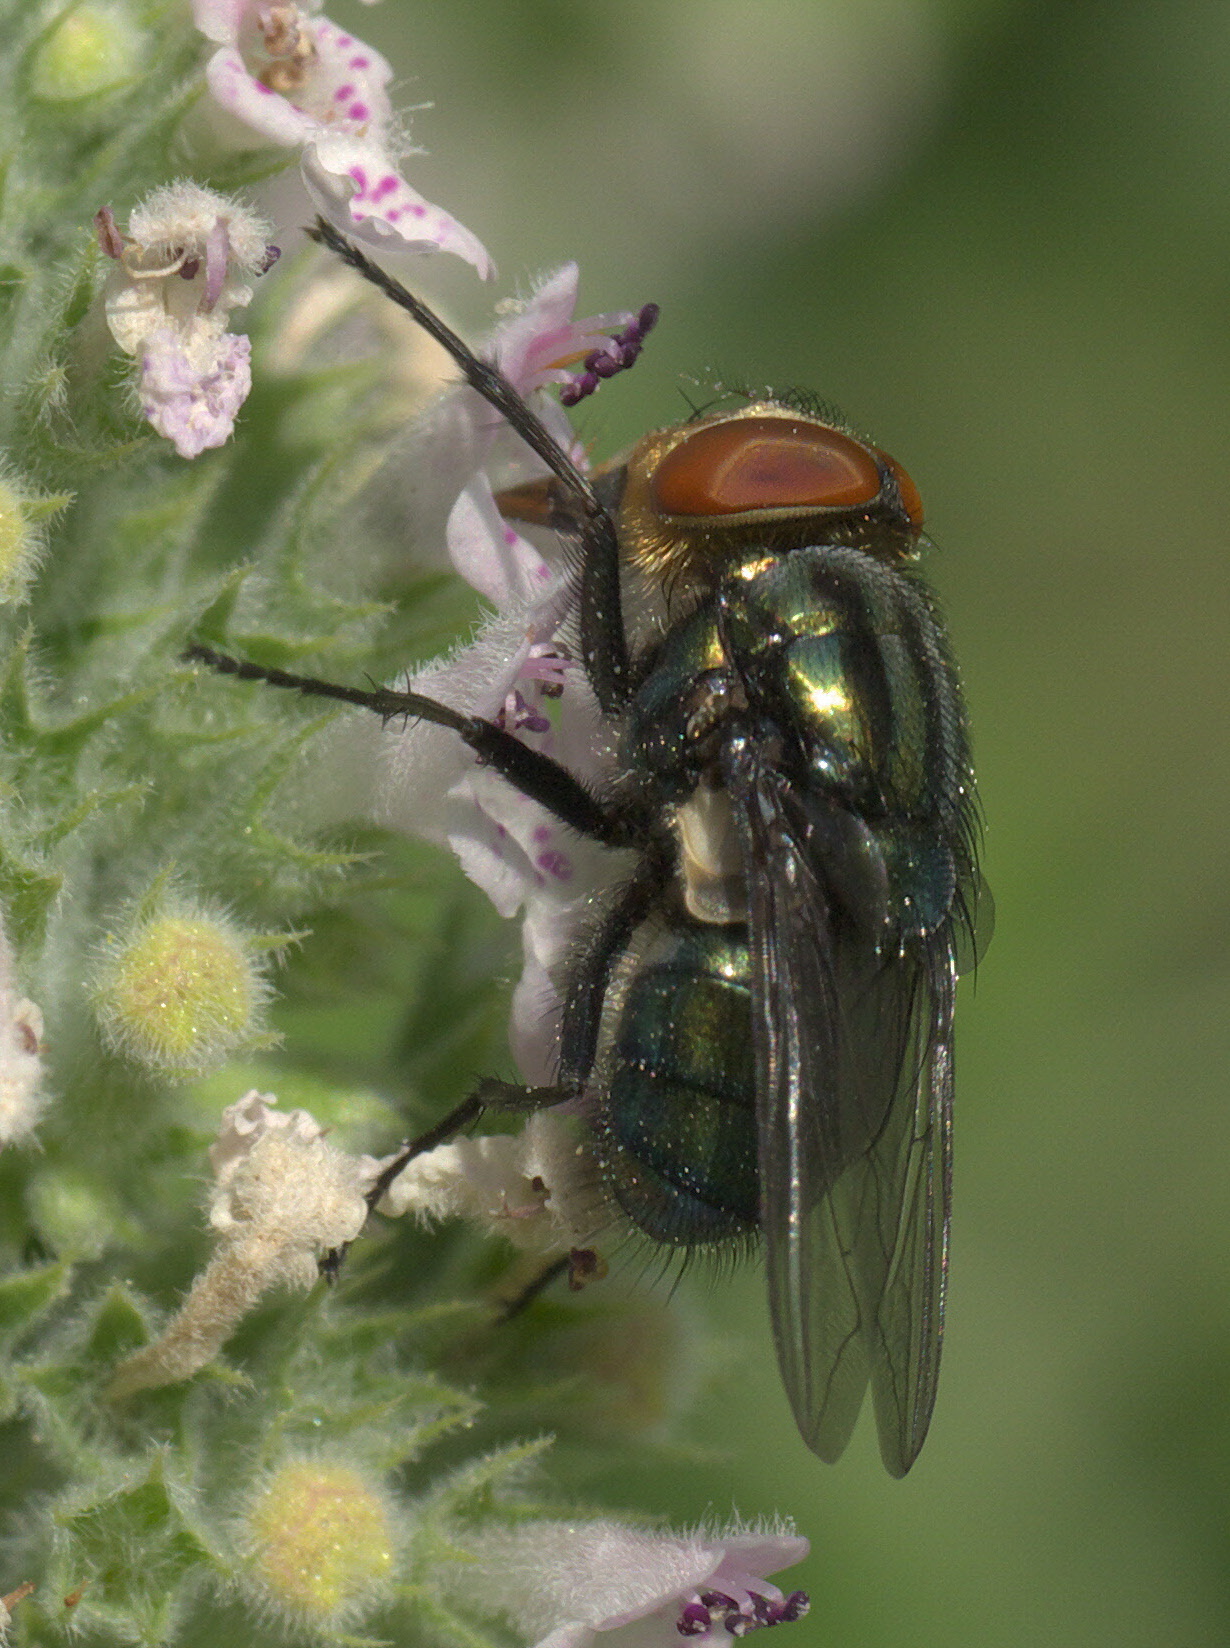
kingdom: Animalia
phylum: Arthropoda
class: Insecta
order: Diptera
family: Calliphoridae
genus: Cochliomyia
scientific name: Cochliomyia macellaria
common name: Secondary screwworm
